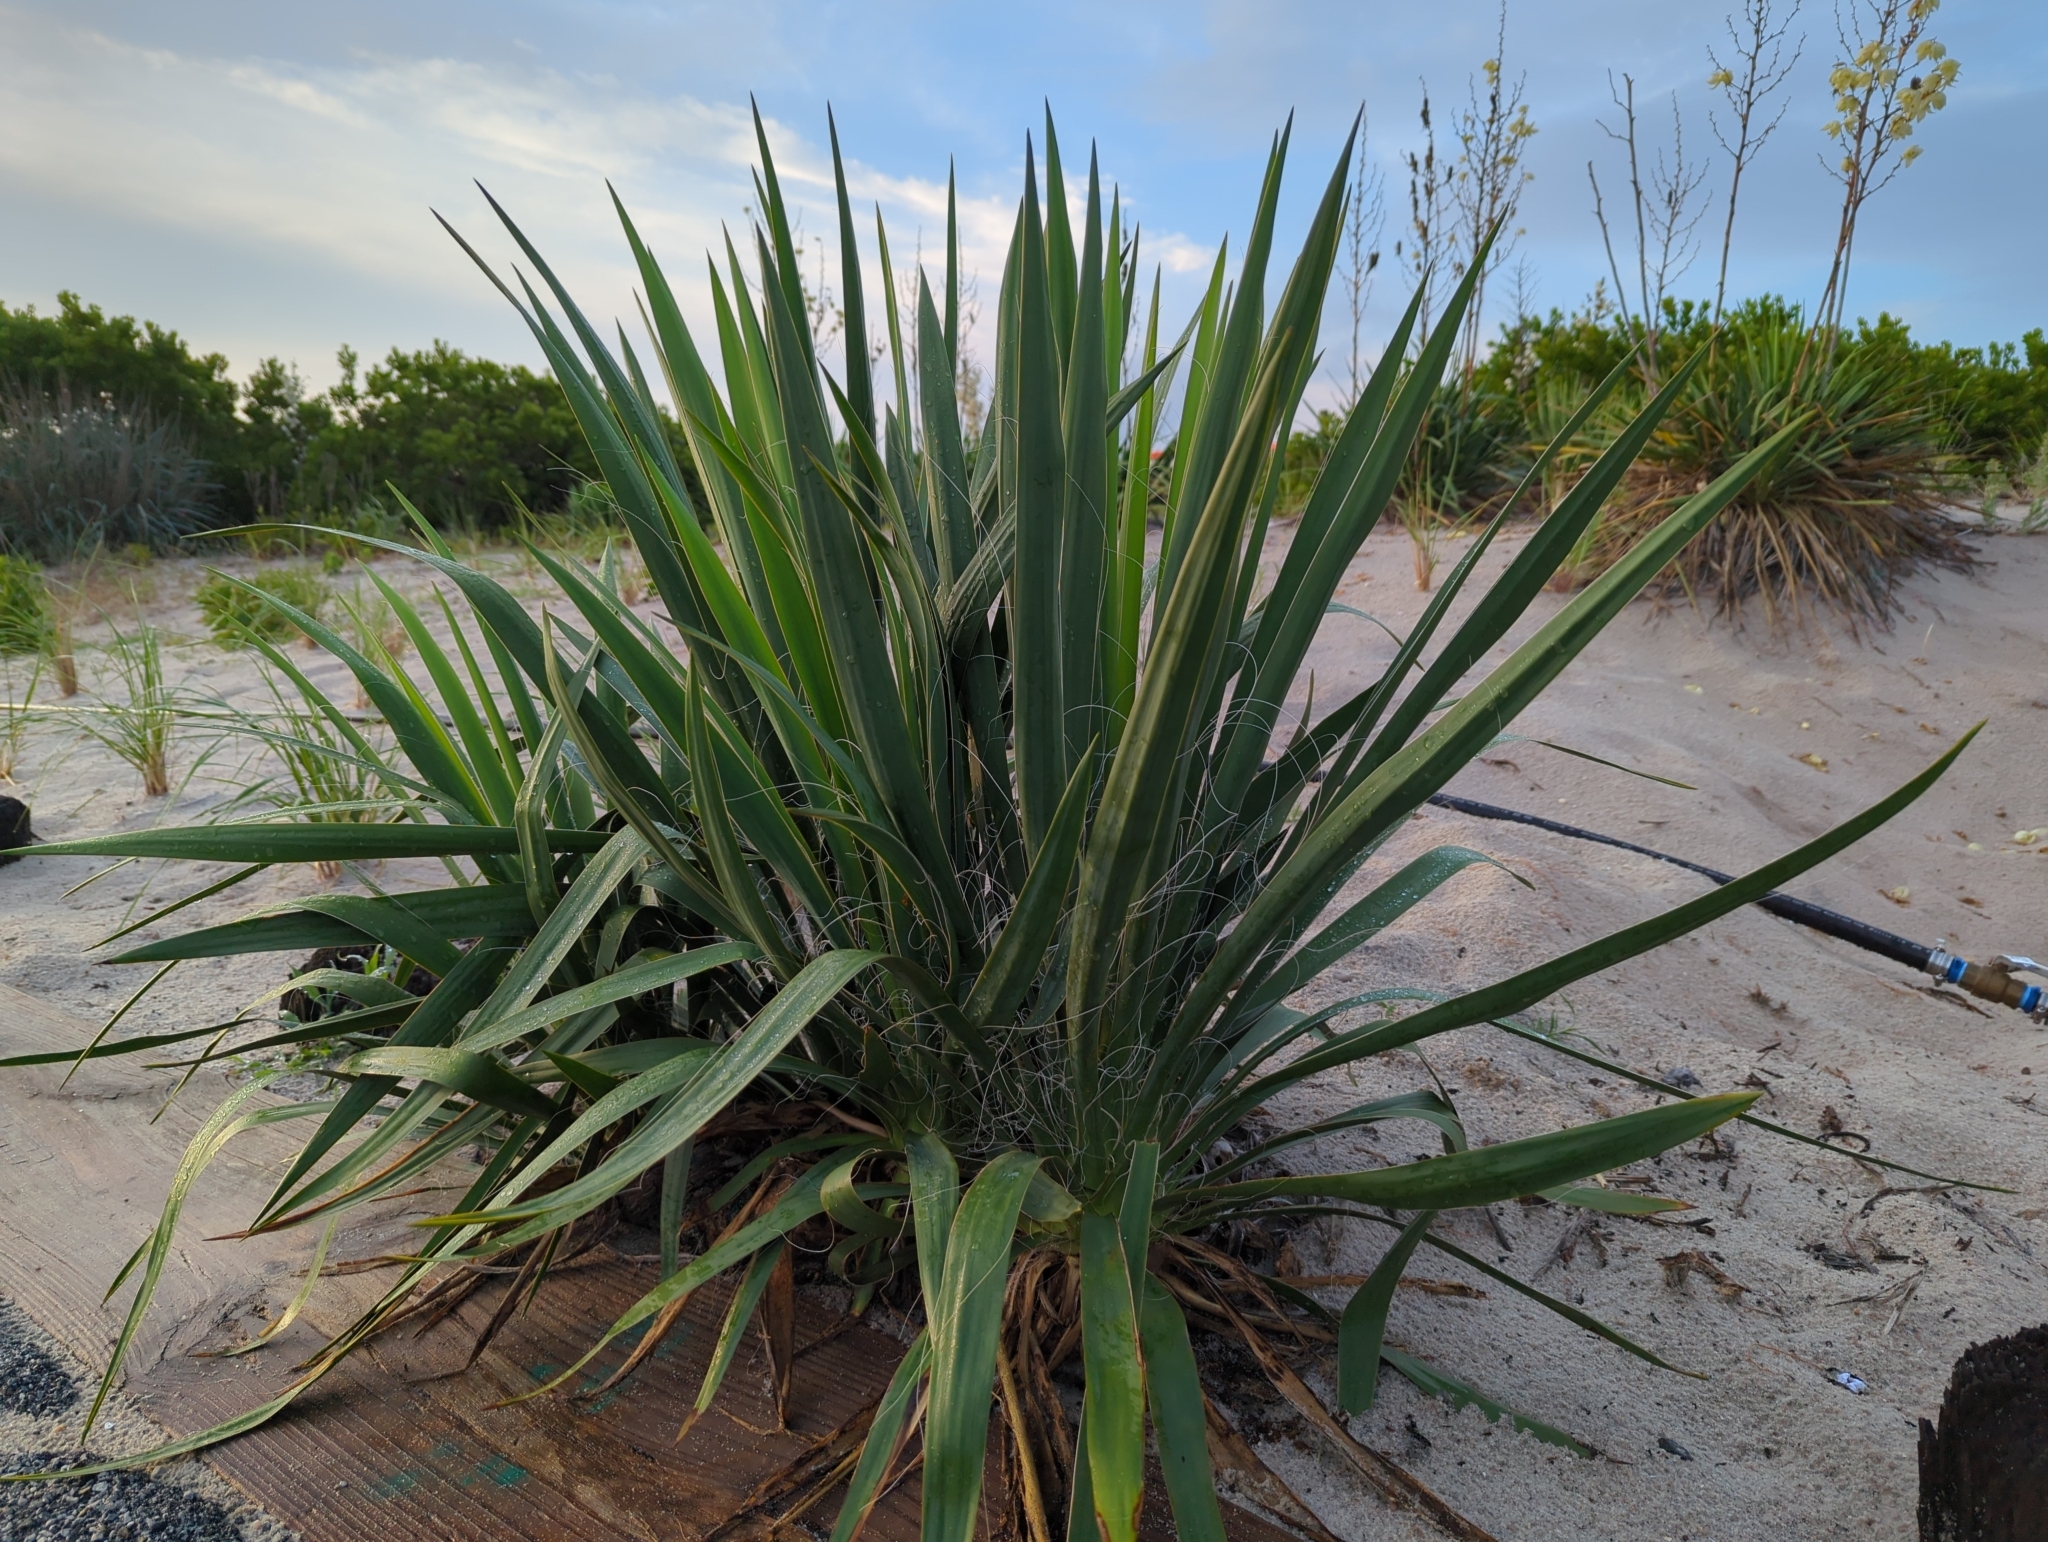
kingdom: Plantae
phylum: Tracheophyta
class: Liliopsida
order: Asparagales
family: Asparagaceae
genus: Yucca
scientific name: Yucca filamentosa
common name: Adam's-needle
